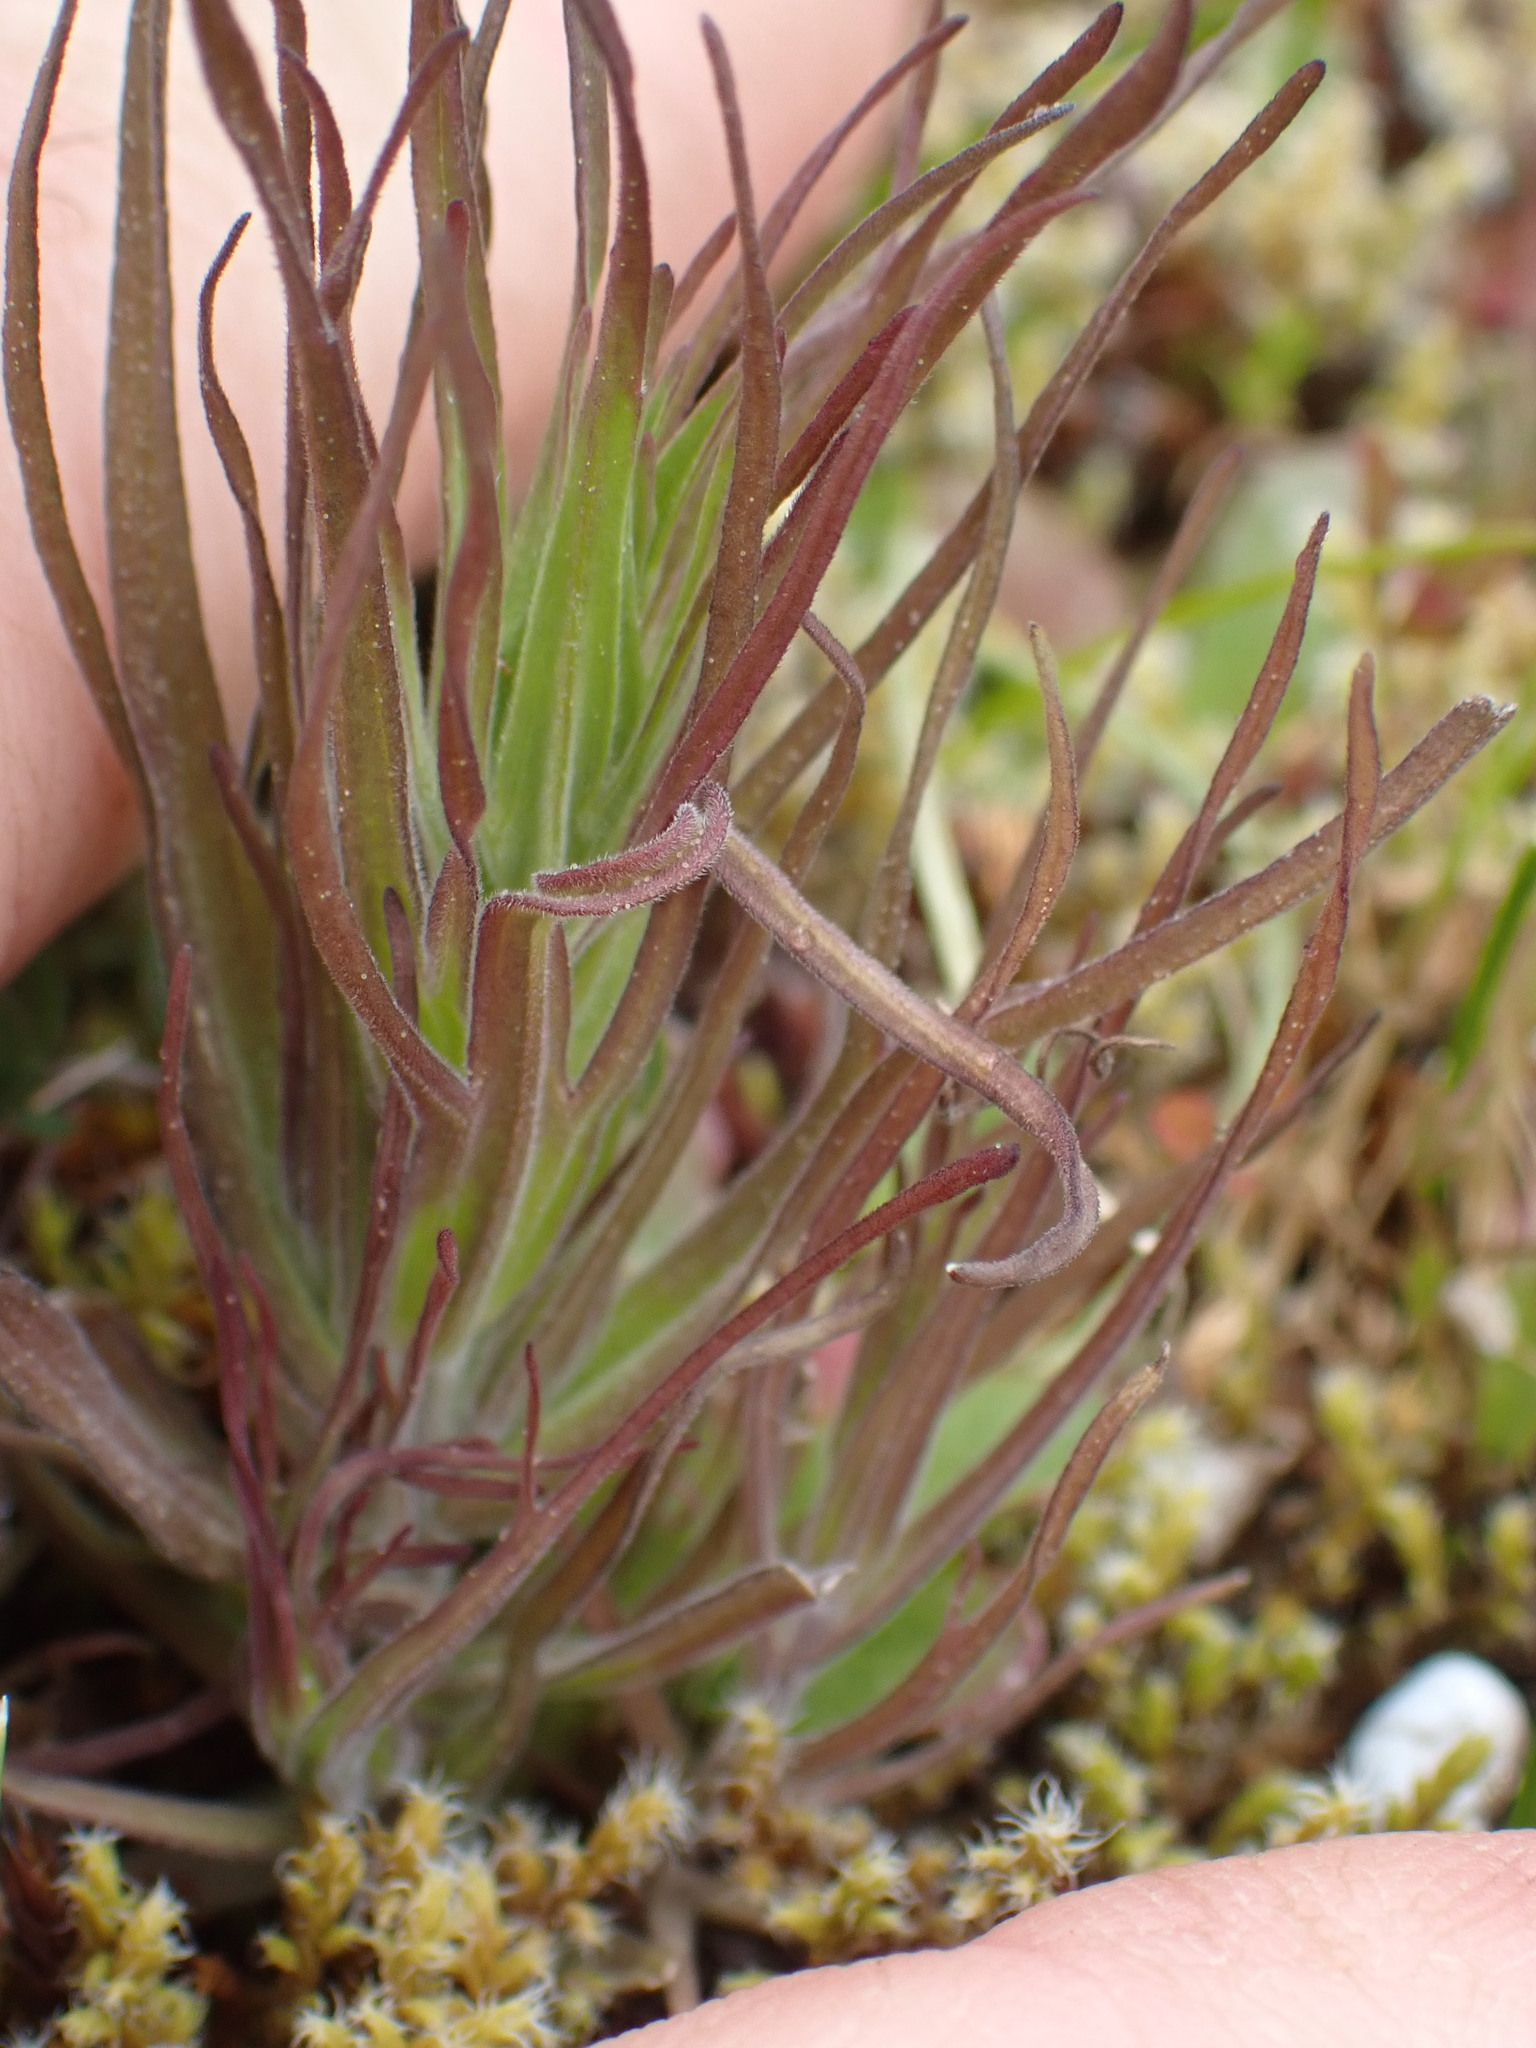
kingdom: Plantae
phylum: Tracheophyta
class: Magnoliopsida
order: Lamiales
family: Orobanchaceae
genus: Castilleja
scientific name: Castilleja attenuata
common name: Valley tassels
